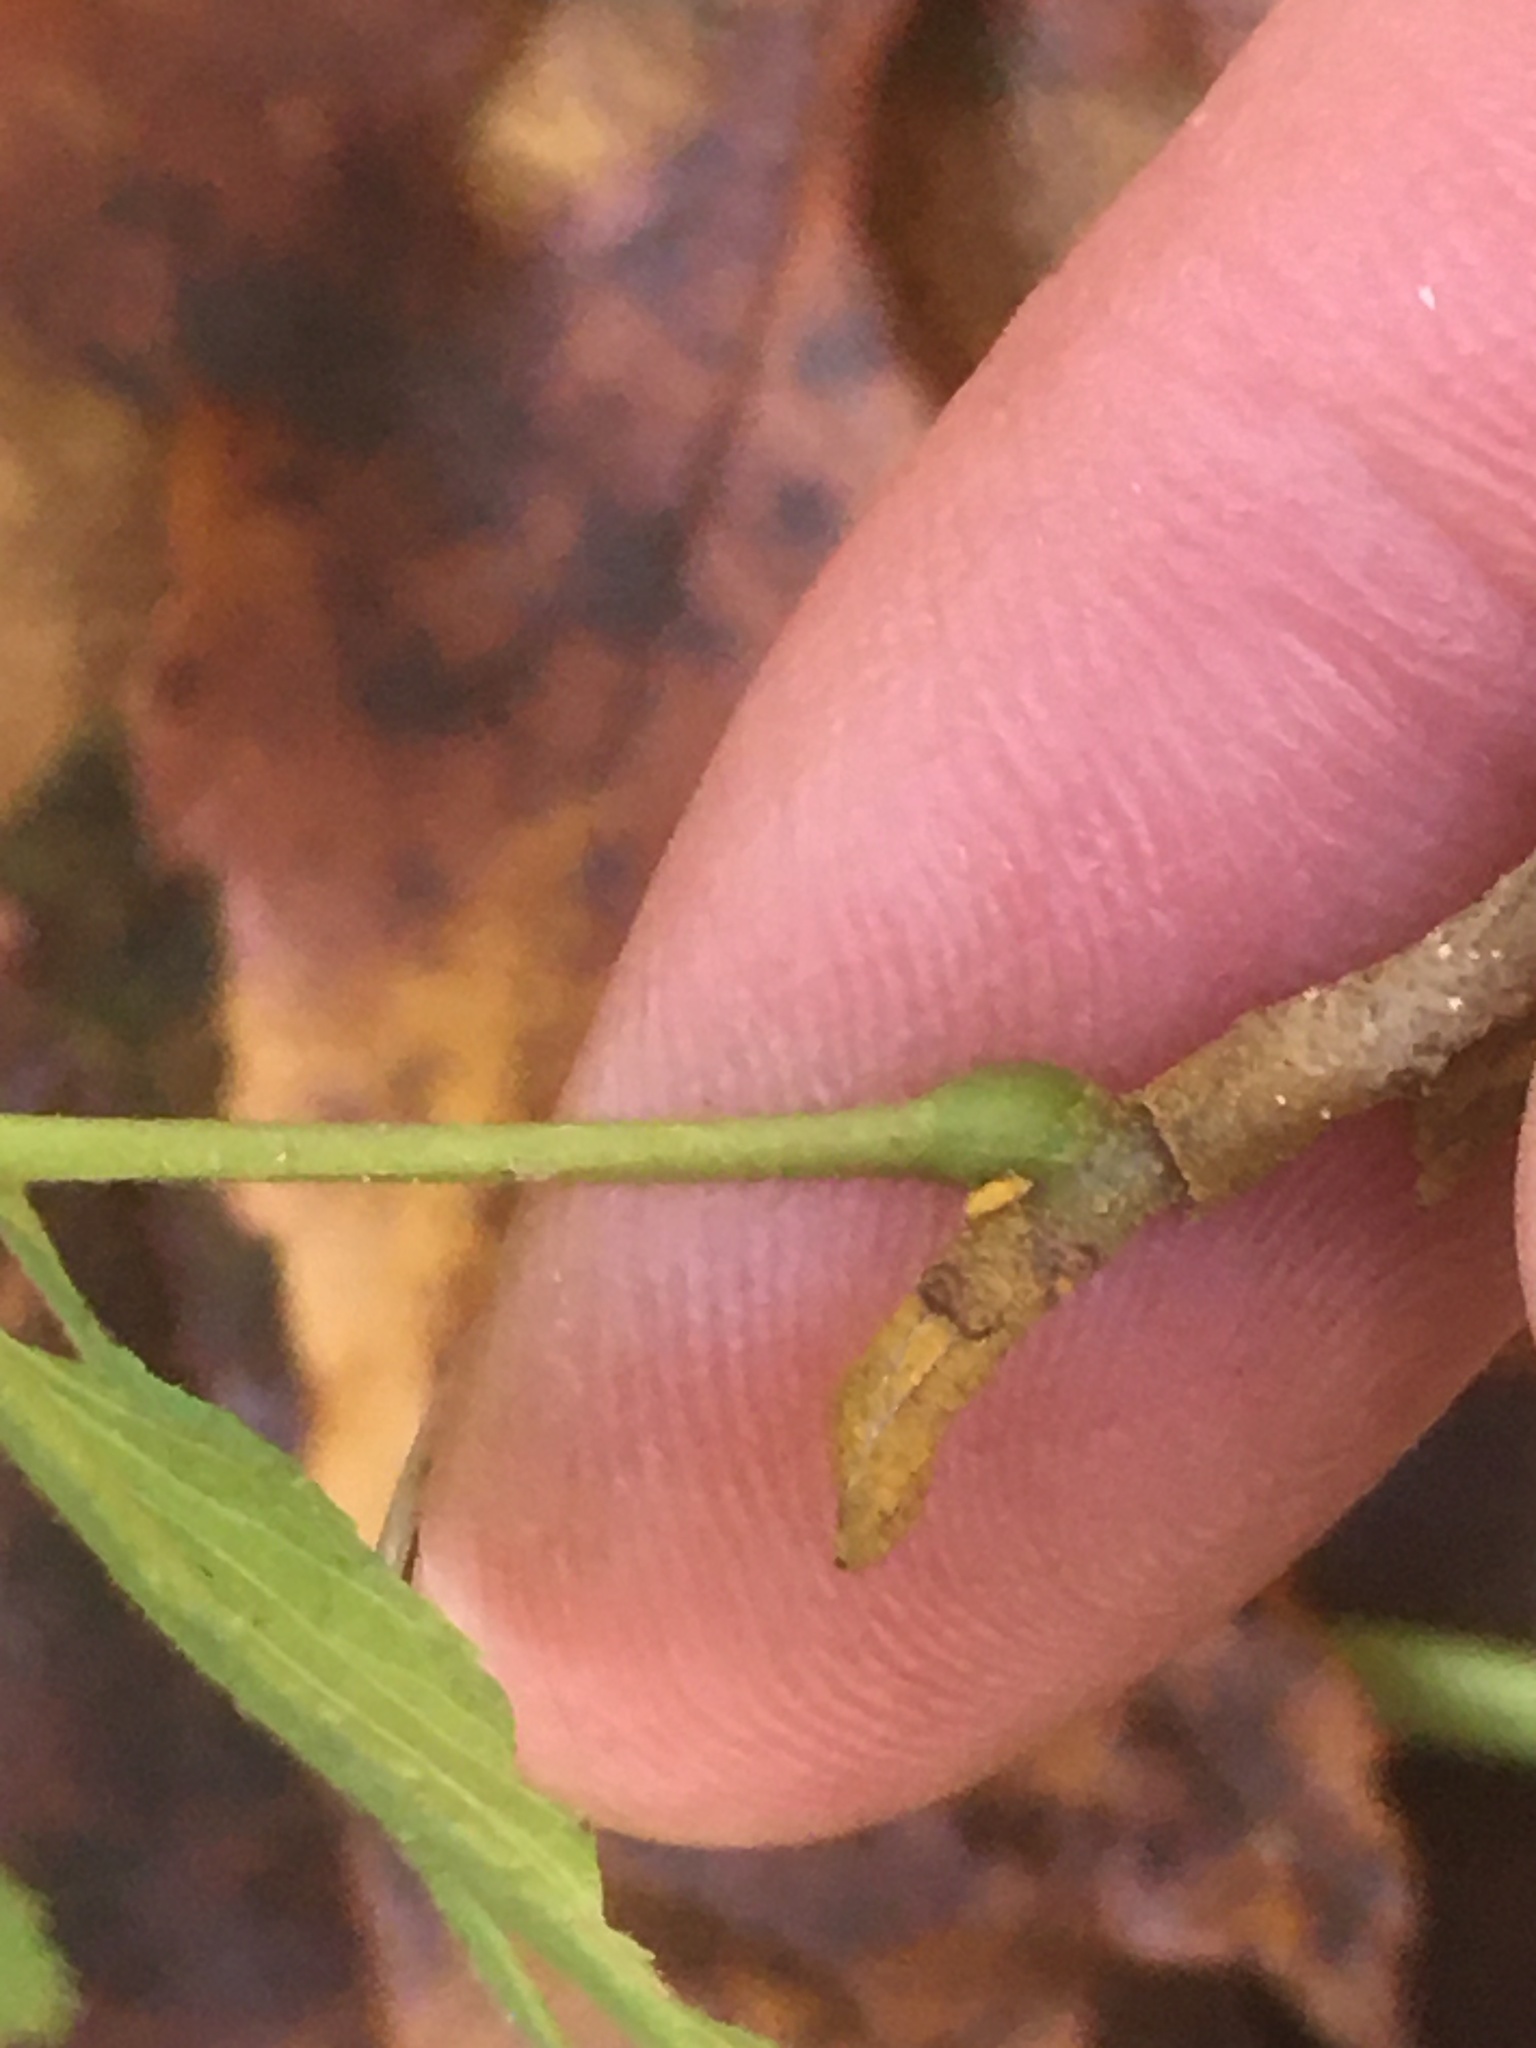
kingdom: Plantae
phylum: Tracheophyta
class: Magnoliopsida
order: Fagales
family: Juglandaceae
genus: Carya
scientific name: Carya cordiformis
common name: Bitternut hickory
